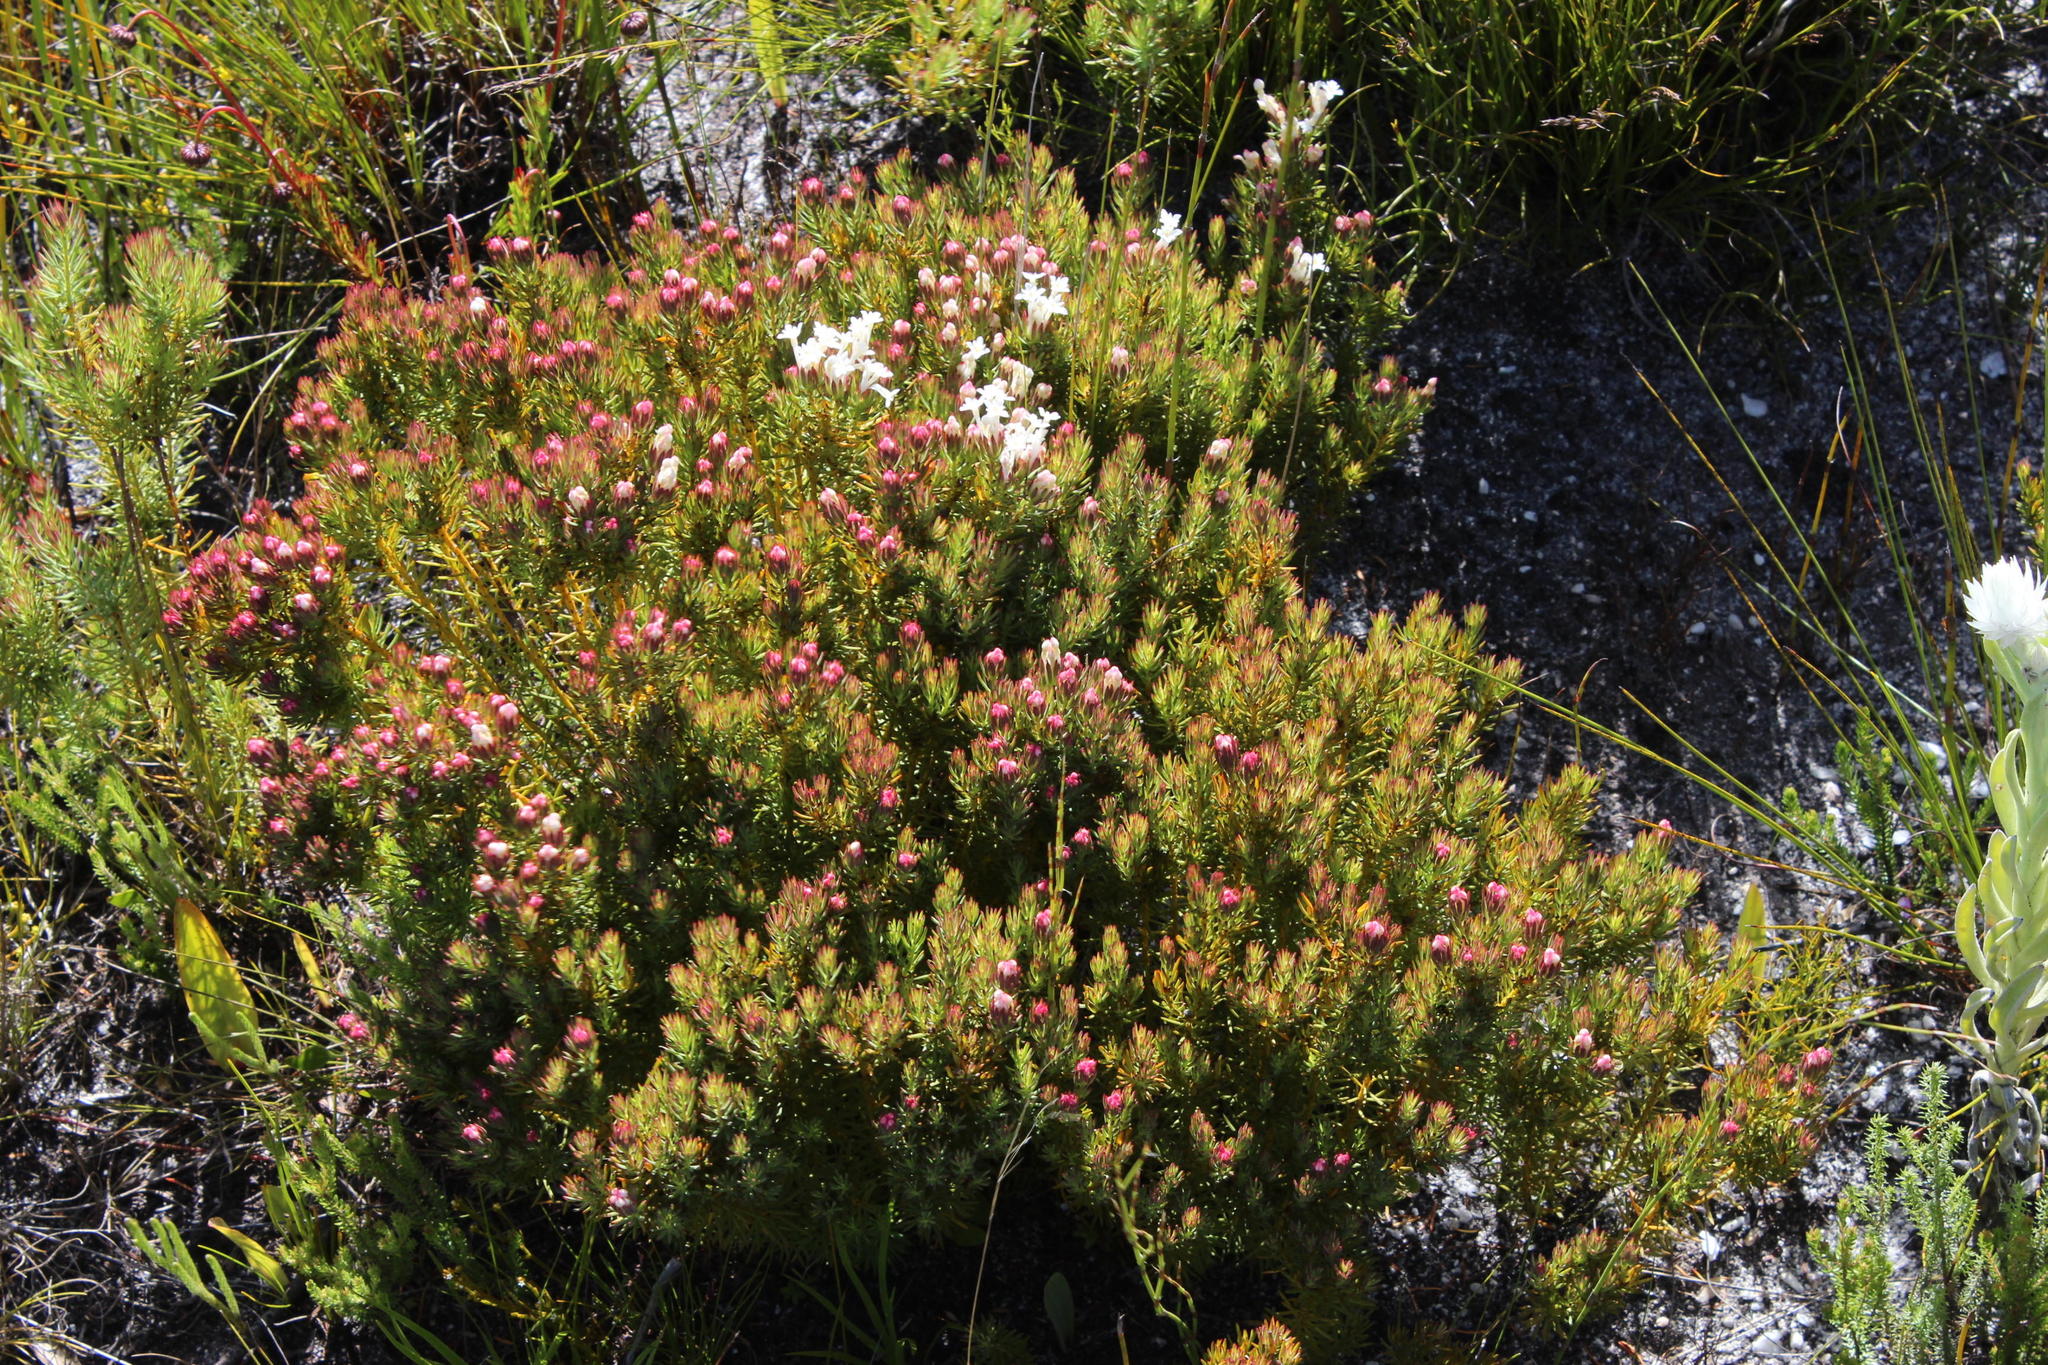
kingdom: Plantae
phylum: Tracheophyta
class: Magnoliopsida
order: Malvales
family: Thymelaeaceae
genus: Gnidia
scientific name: Gnidia pinifolia
